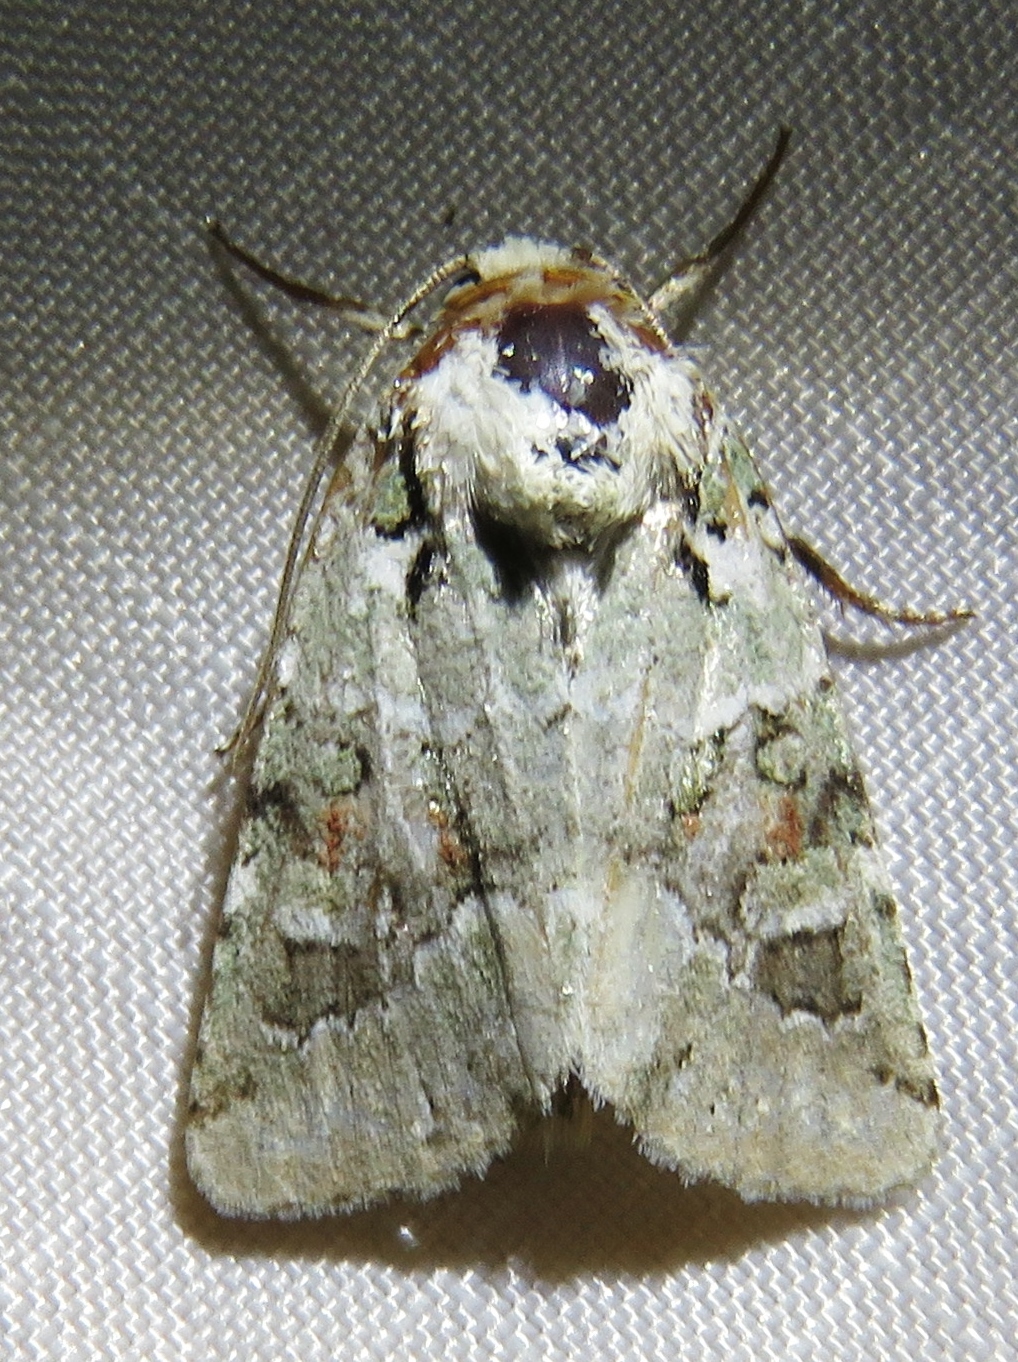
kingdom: Animalia
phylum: Arthropoda
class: Insecta
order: Lepidoptera
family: Noctuidae
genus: Lacinipolia
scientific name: Lacinipolia laudabilis
